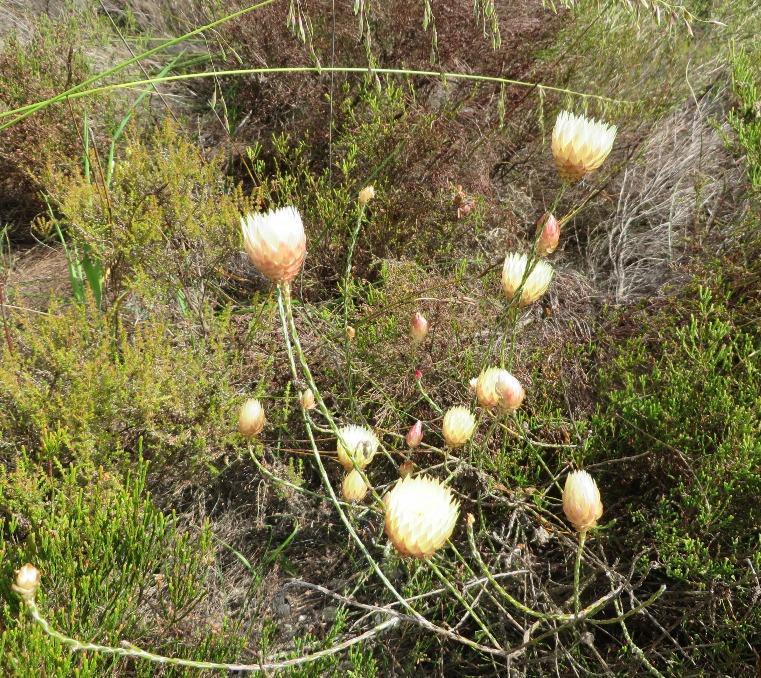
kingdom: Plantae
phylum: Tracheophyta
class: Magnoliopsida
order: Asterales
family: Asteraceae
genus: Edmondia
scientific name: Edmondia sesamoides
